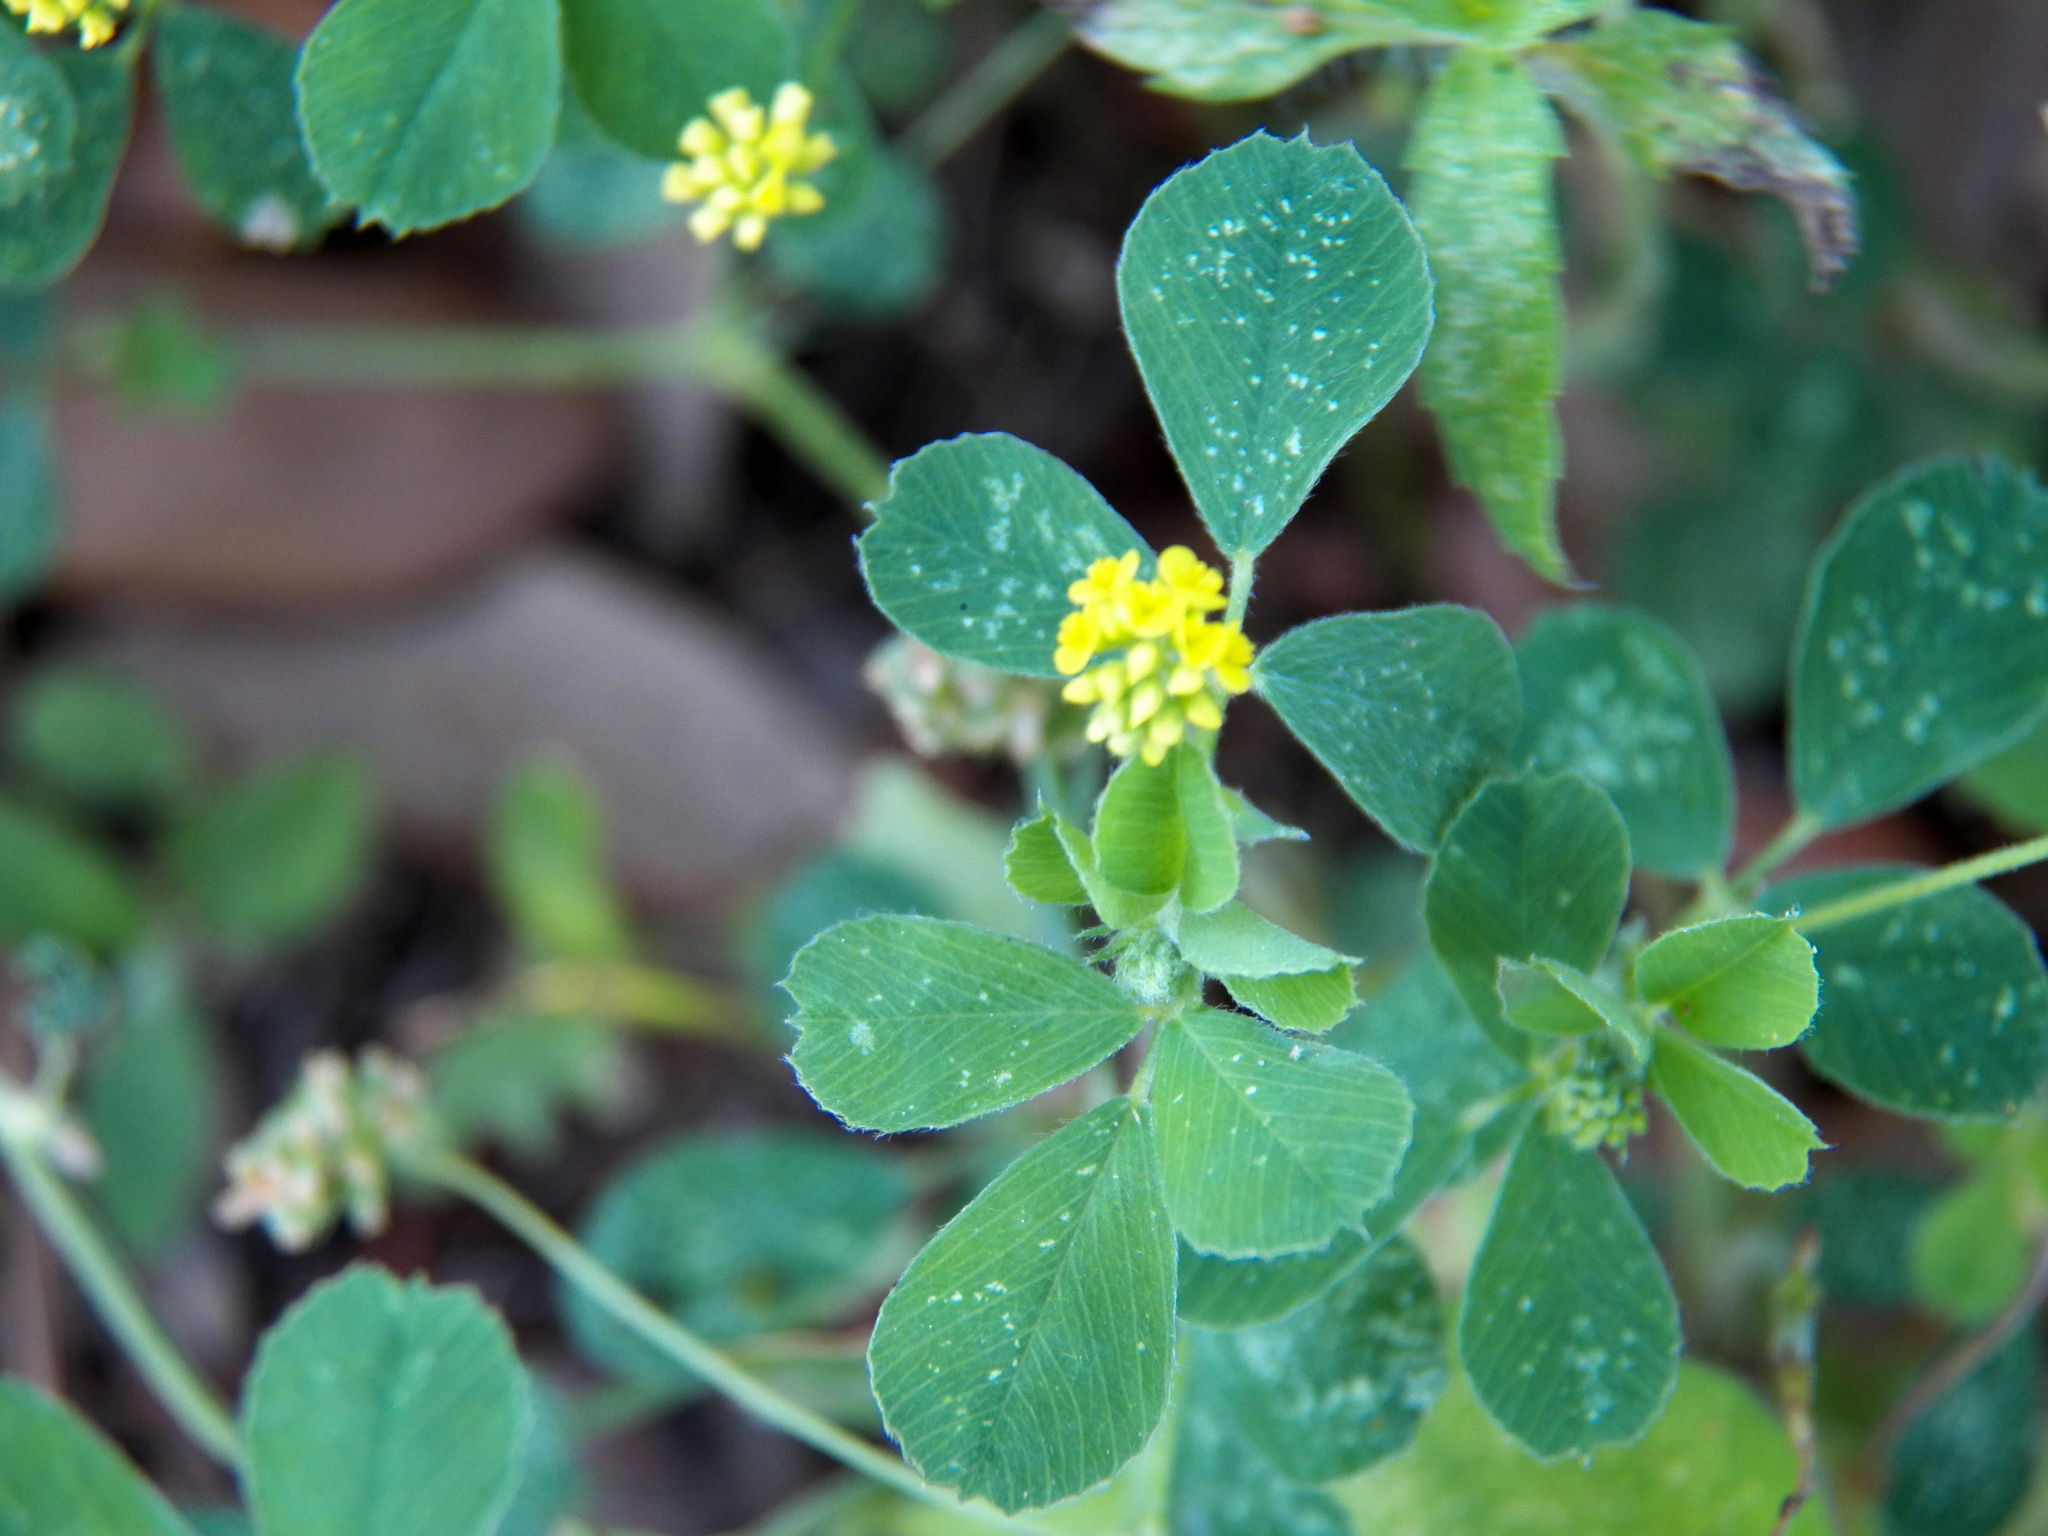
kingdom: Plantae
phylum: Tracheophyta
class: Magnoliopsida
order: Fabales
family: Fabaceae
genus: Medicago
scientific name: Medicago lupulina
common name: Black medick
